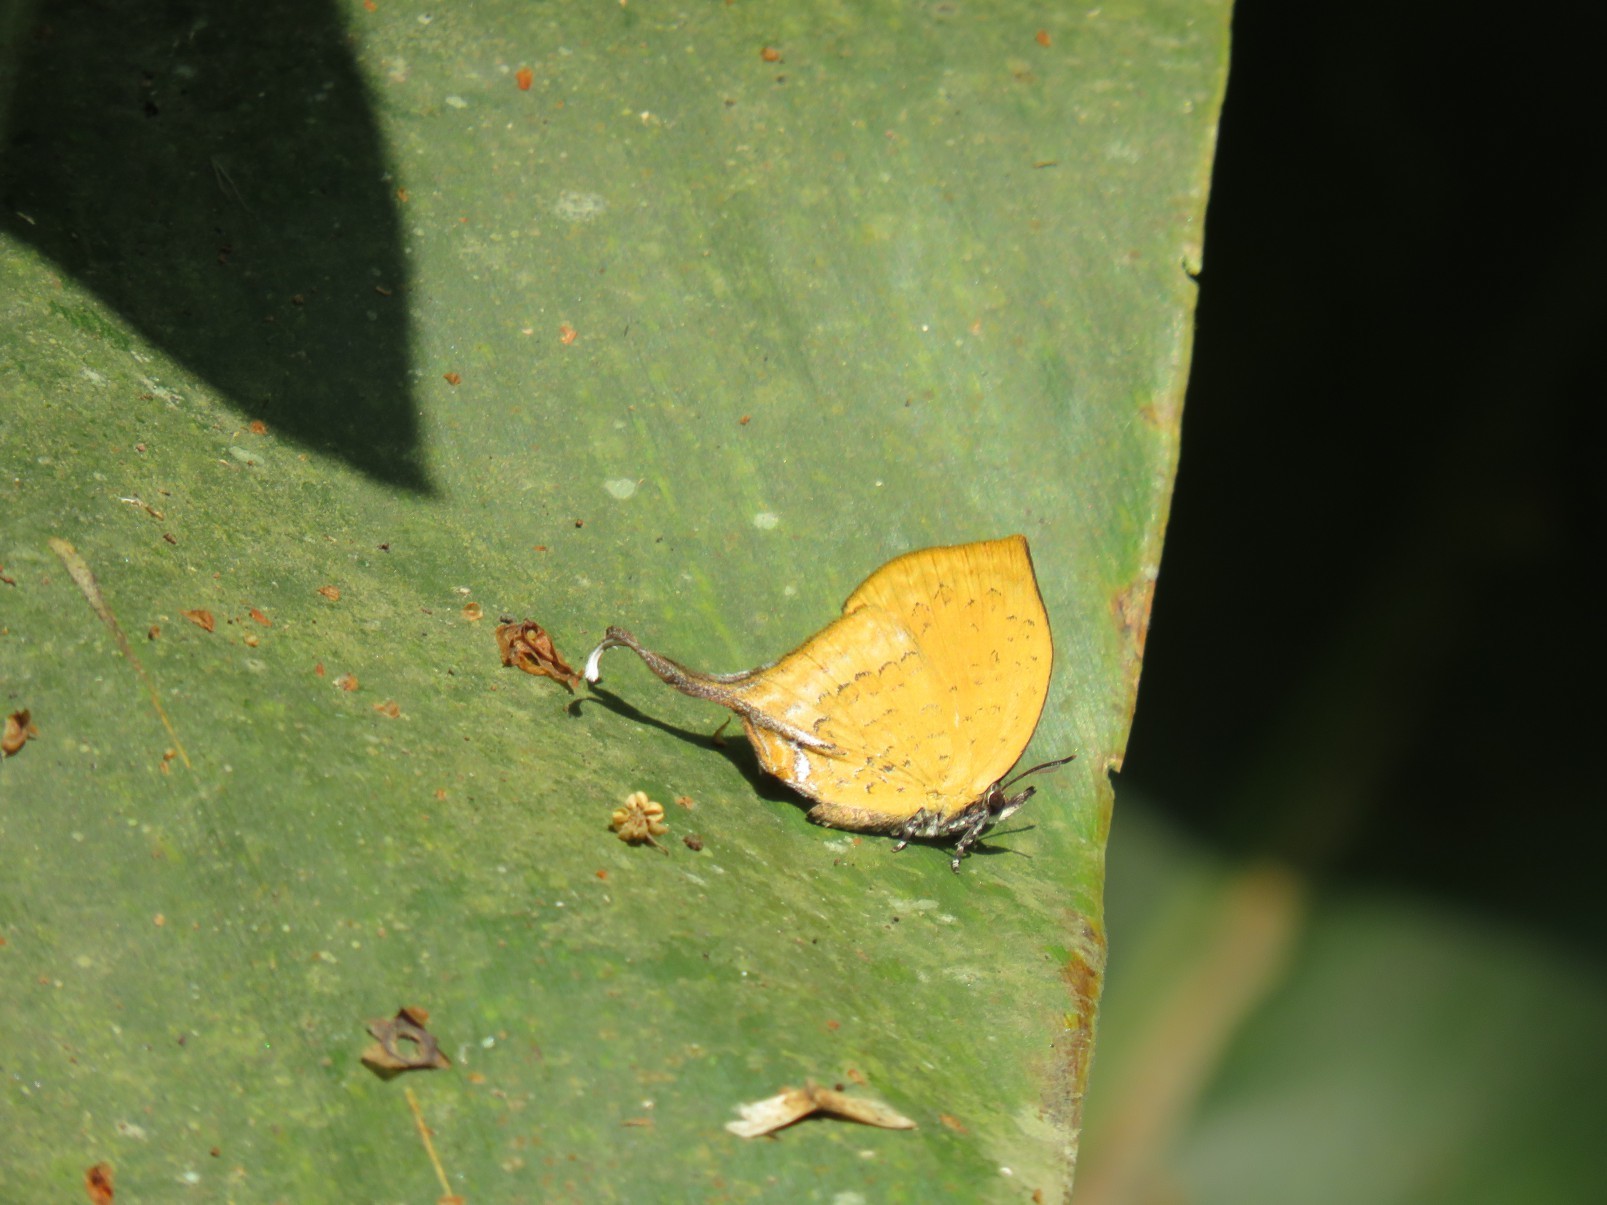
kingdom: Animalia
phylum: Arthropoda
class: Insecta
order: Lepidoptera
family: Lycaenidae
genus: Yasoda
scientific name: Yasoda tripunctata
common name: Branded yamfly
